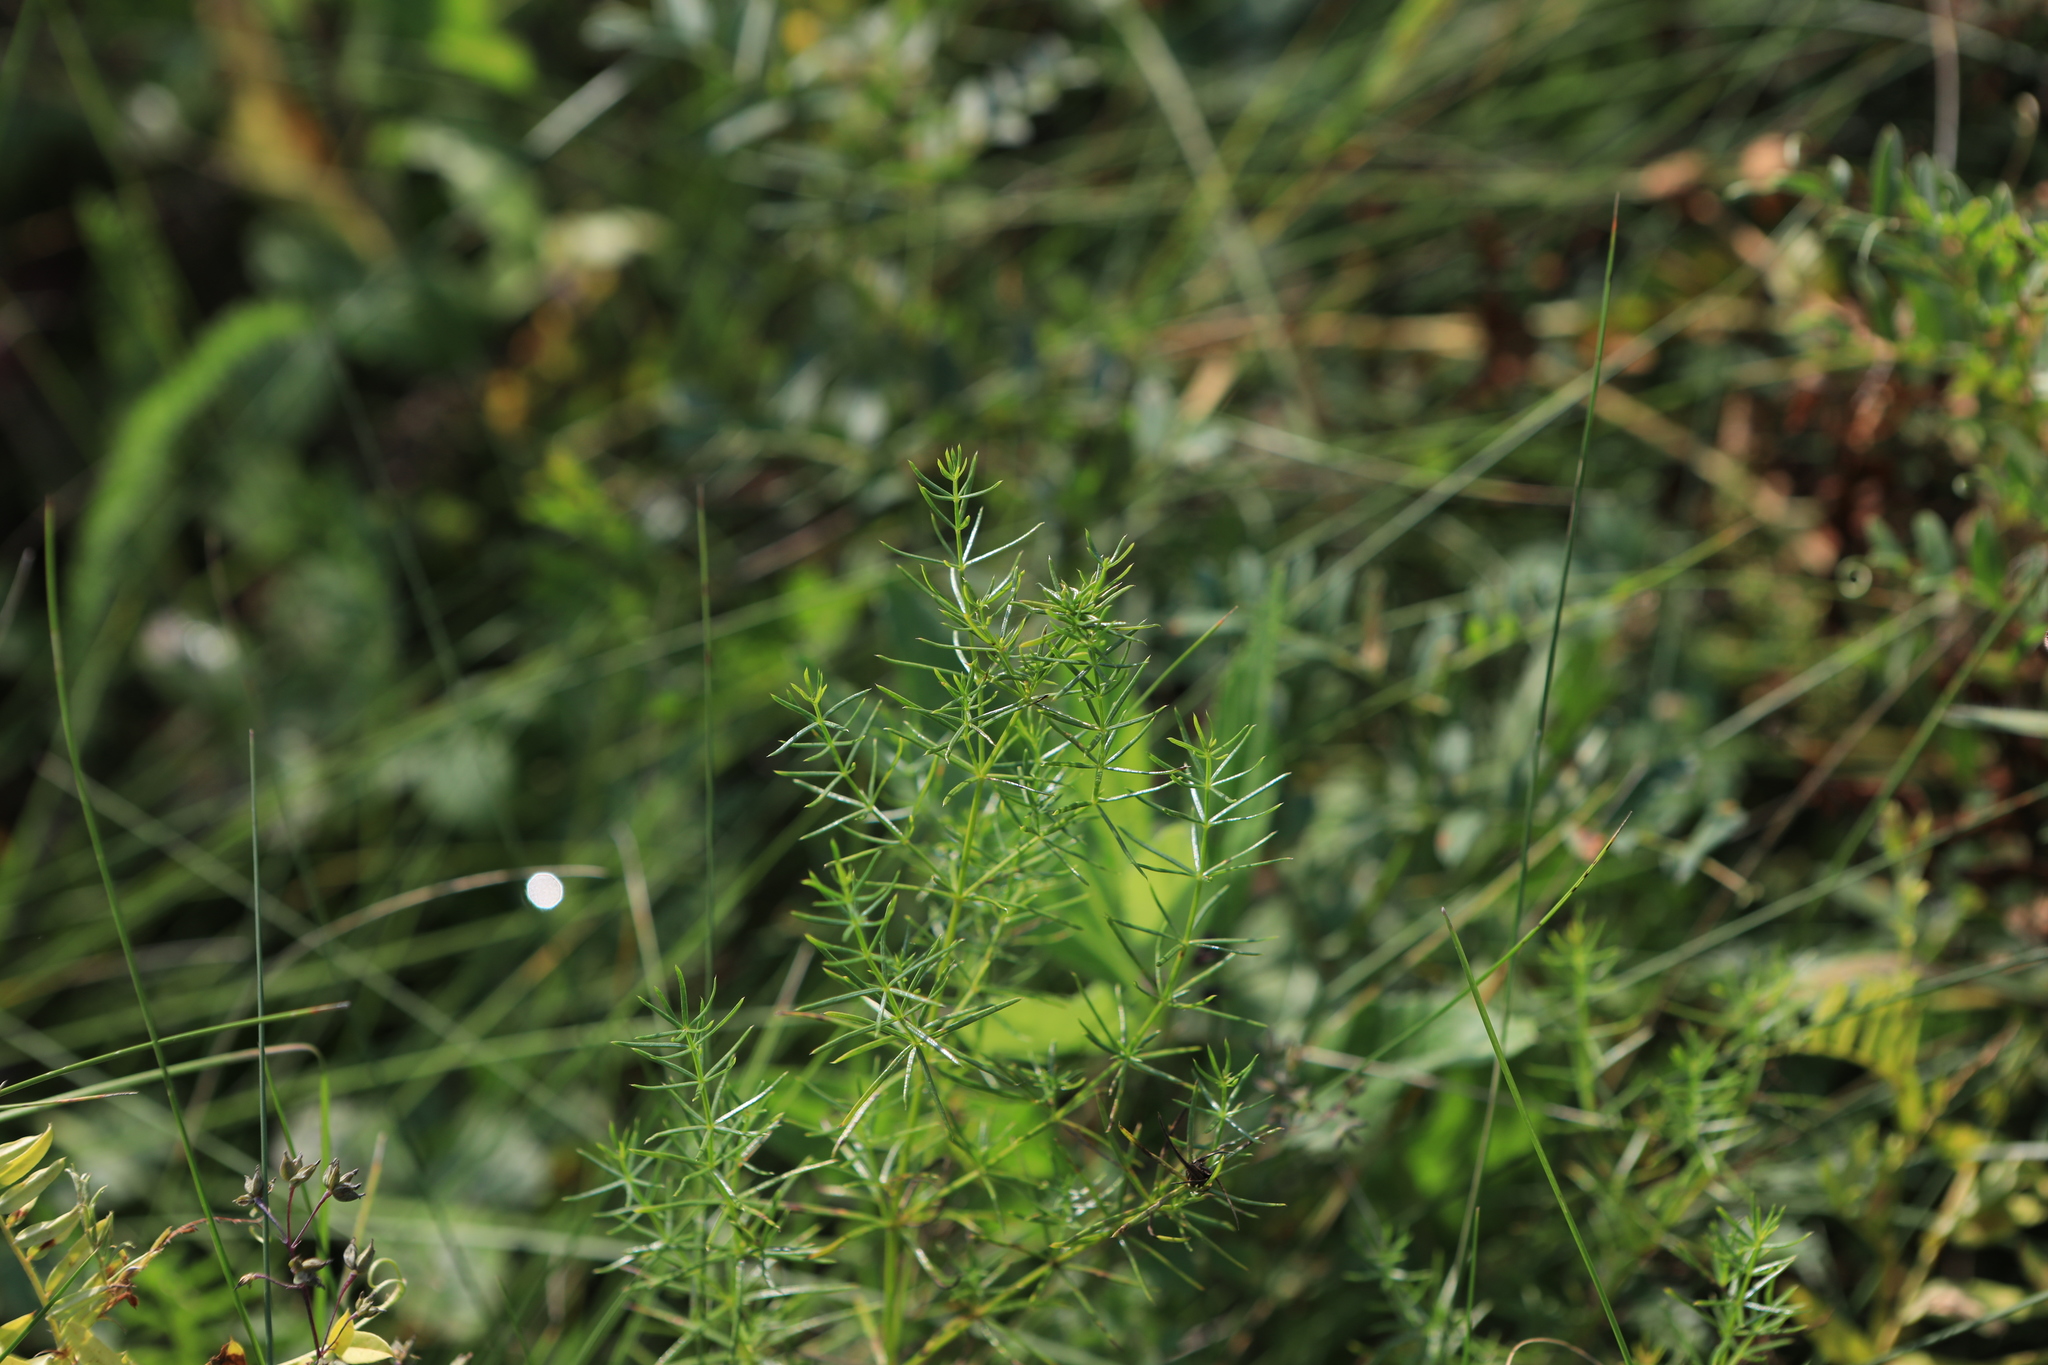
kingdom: Plantae
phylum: Tracheophyta
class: Magnoliopsida
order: Gentianales
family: Rubiaceae
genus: Galium
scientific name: Galium verum
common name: Lady's bedstraw
